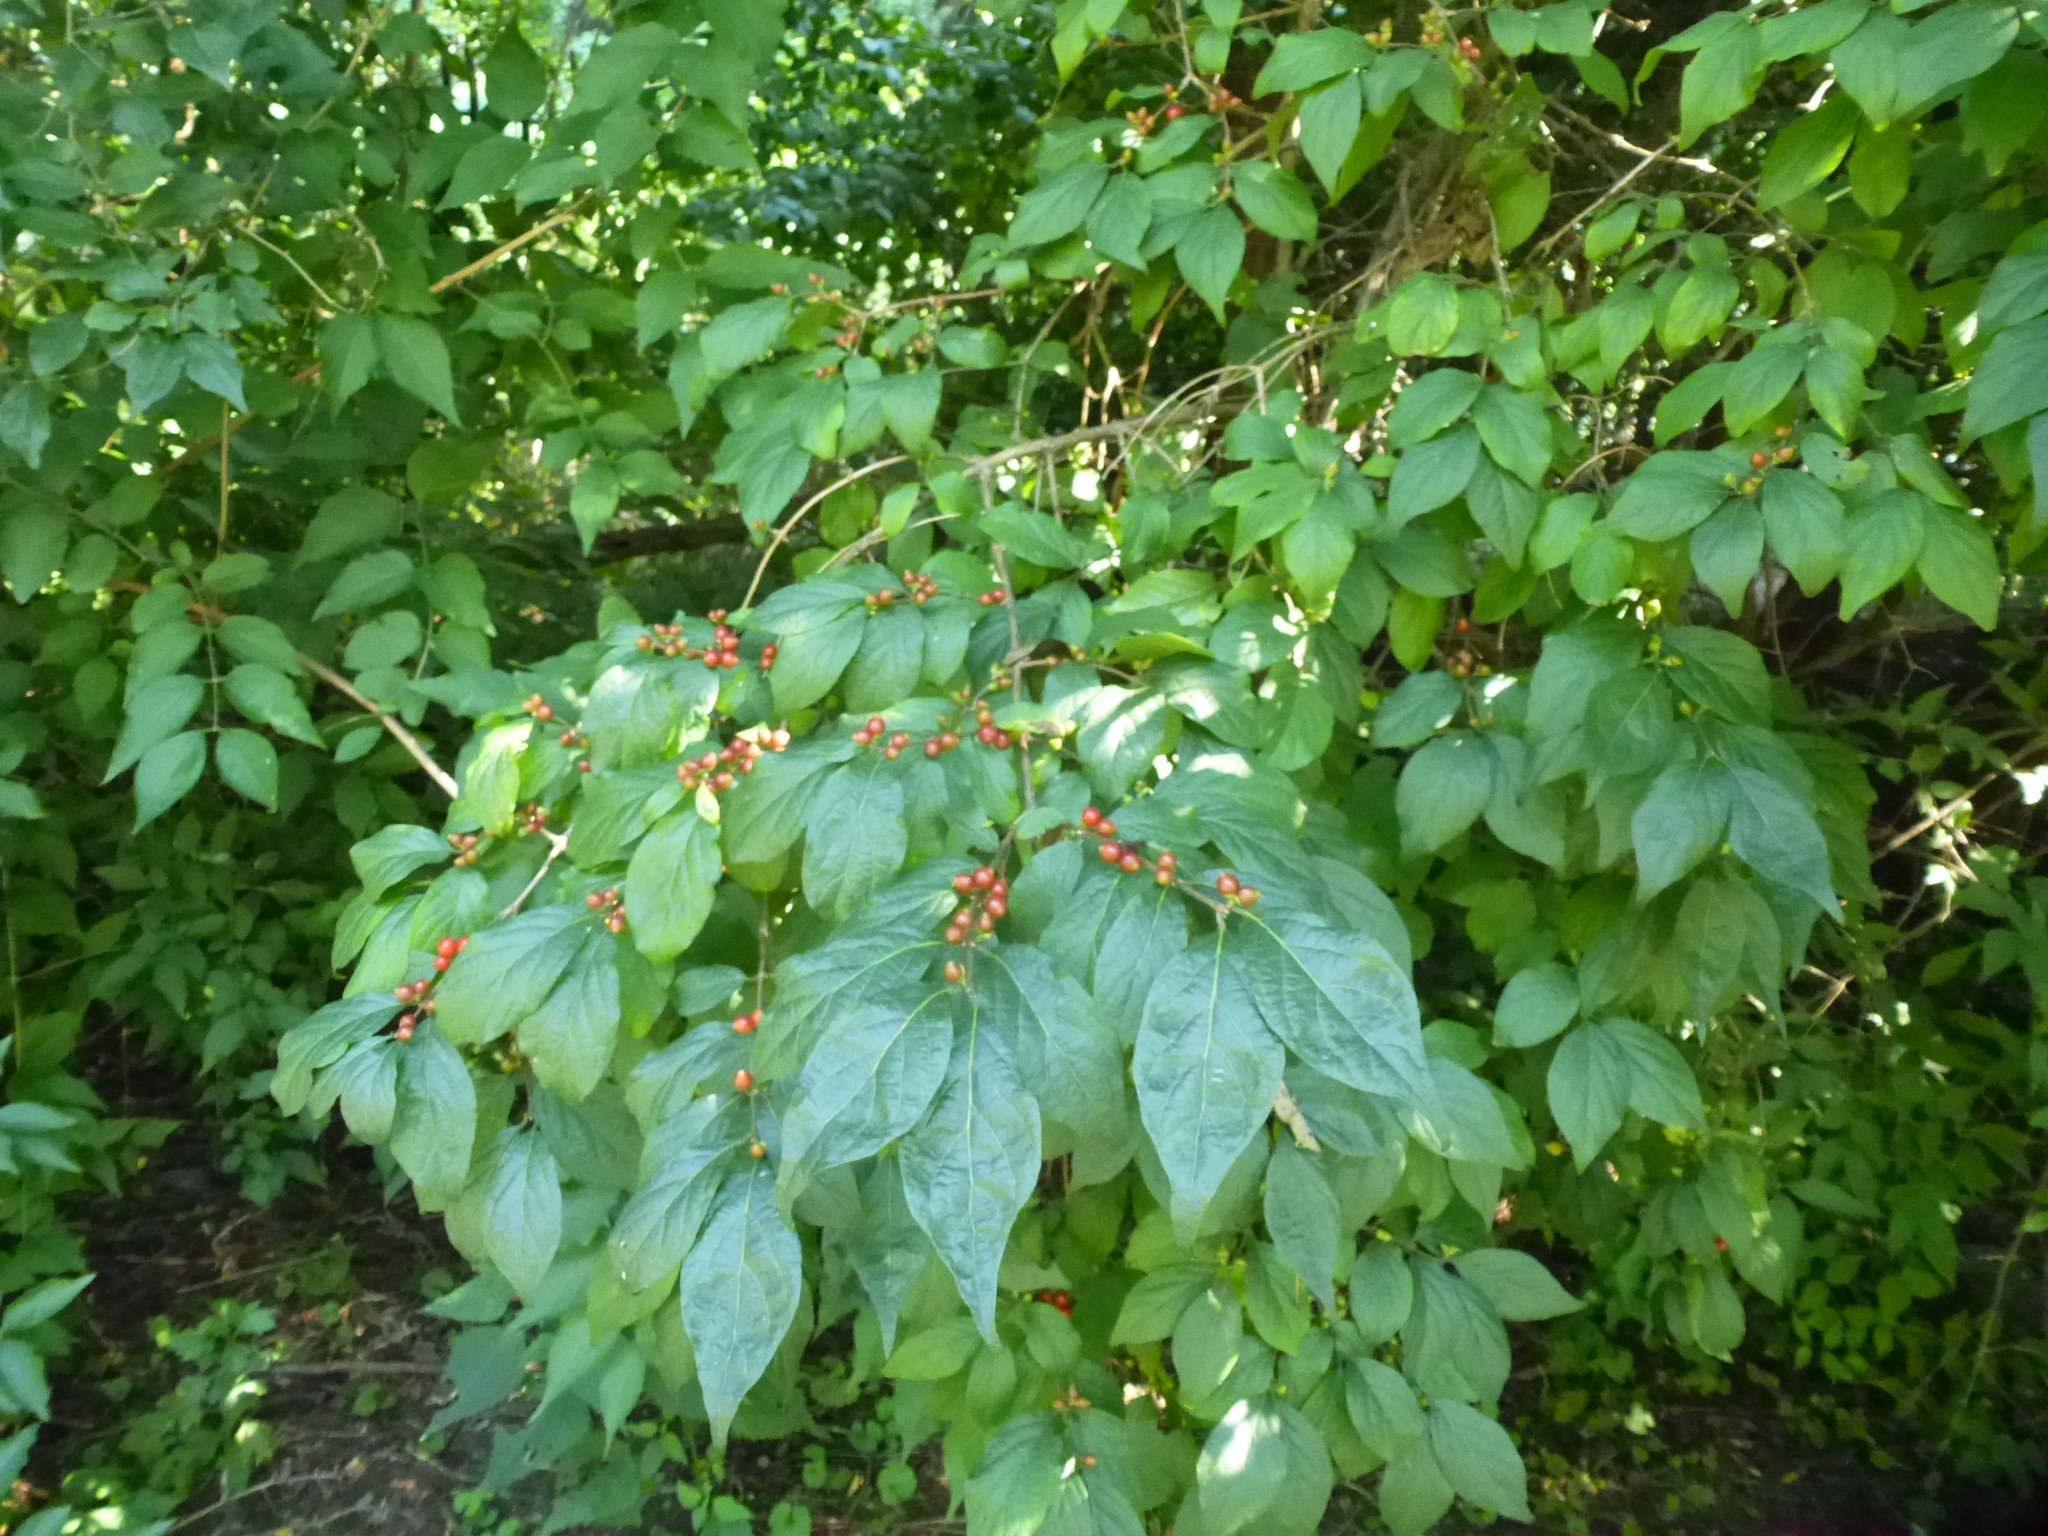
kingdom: Plantae
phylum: Tracheophyta
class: Magnoliopsida
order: Dipsacales
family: Caprifoliaceae
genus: Lonicera
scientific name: Lonicera maackii
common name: Amur honeysuckle
